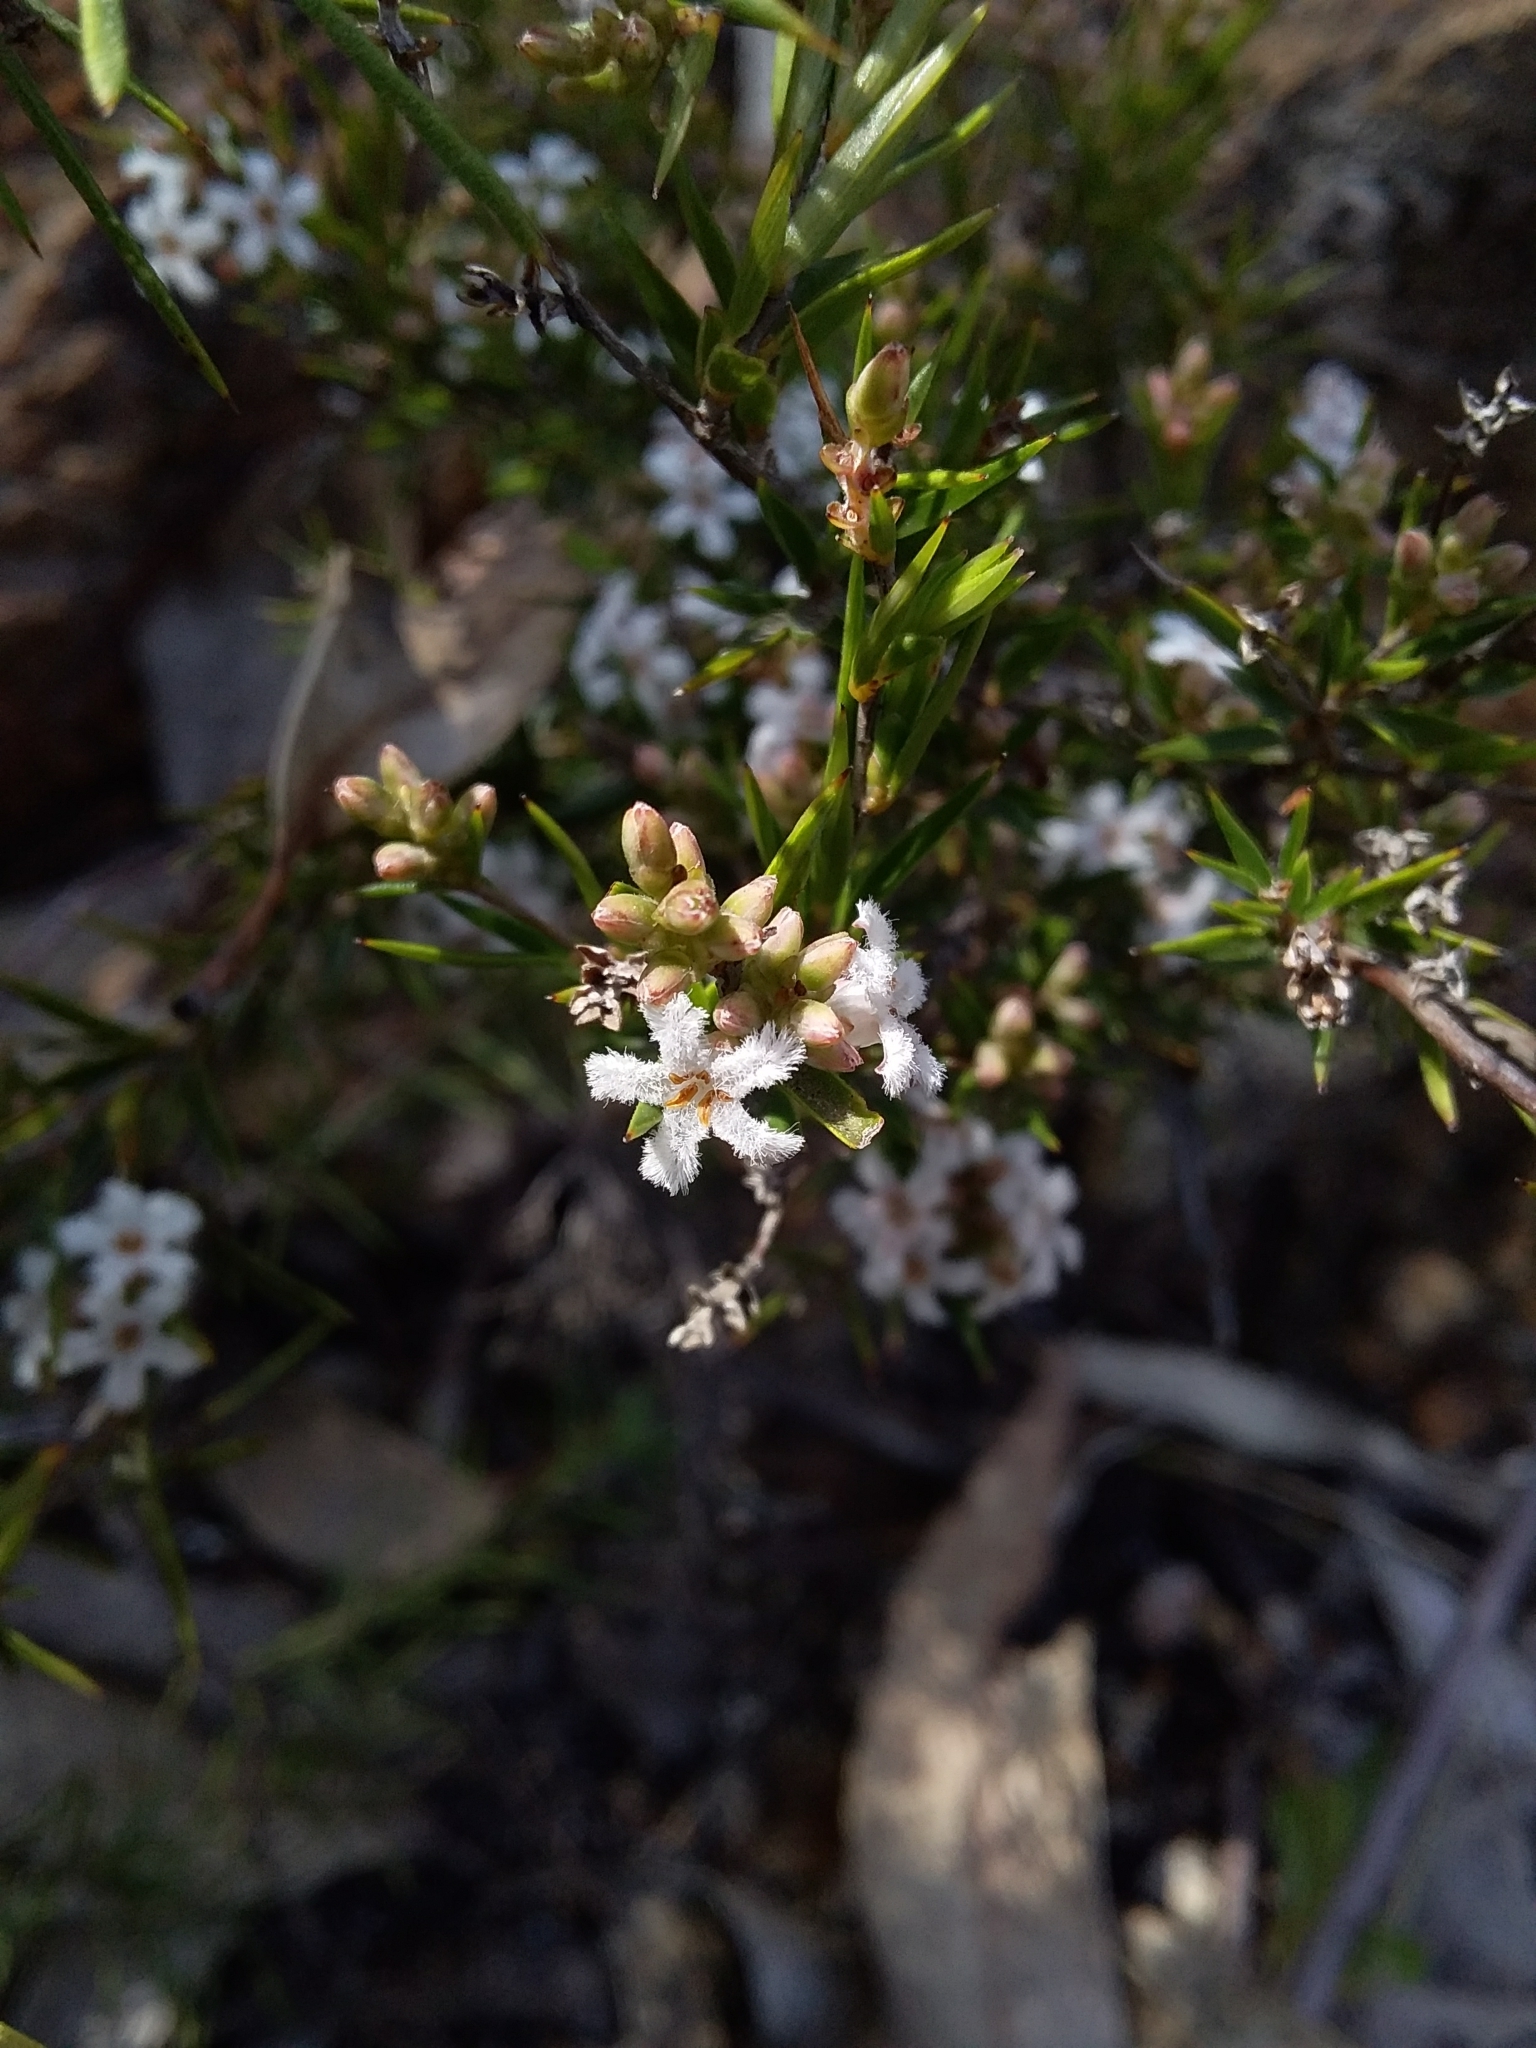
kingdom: Plantae
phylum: Tracheophyta
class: Magnoliopsida
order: Ericales
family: Ericaceae
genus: Leucopogon
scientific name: Leucopogon virgatus
